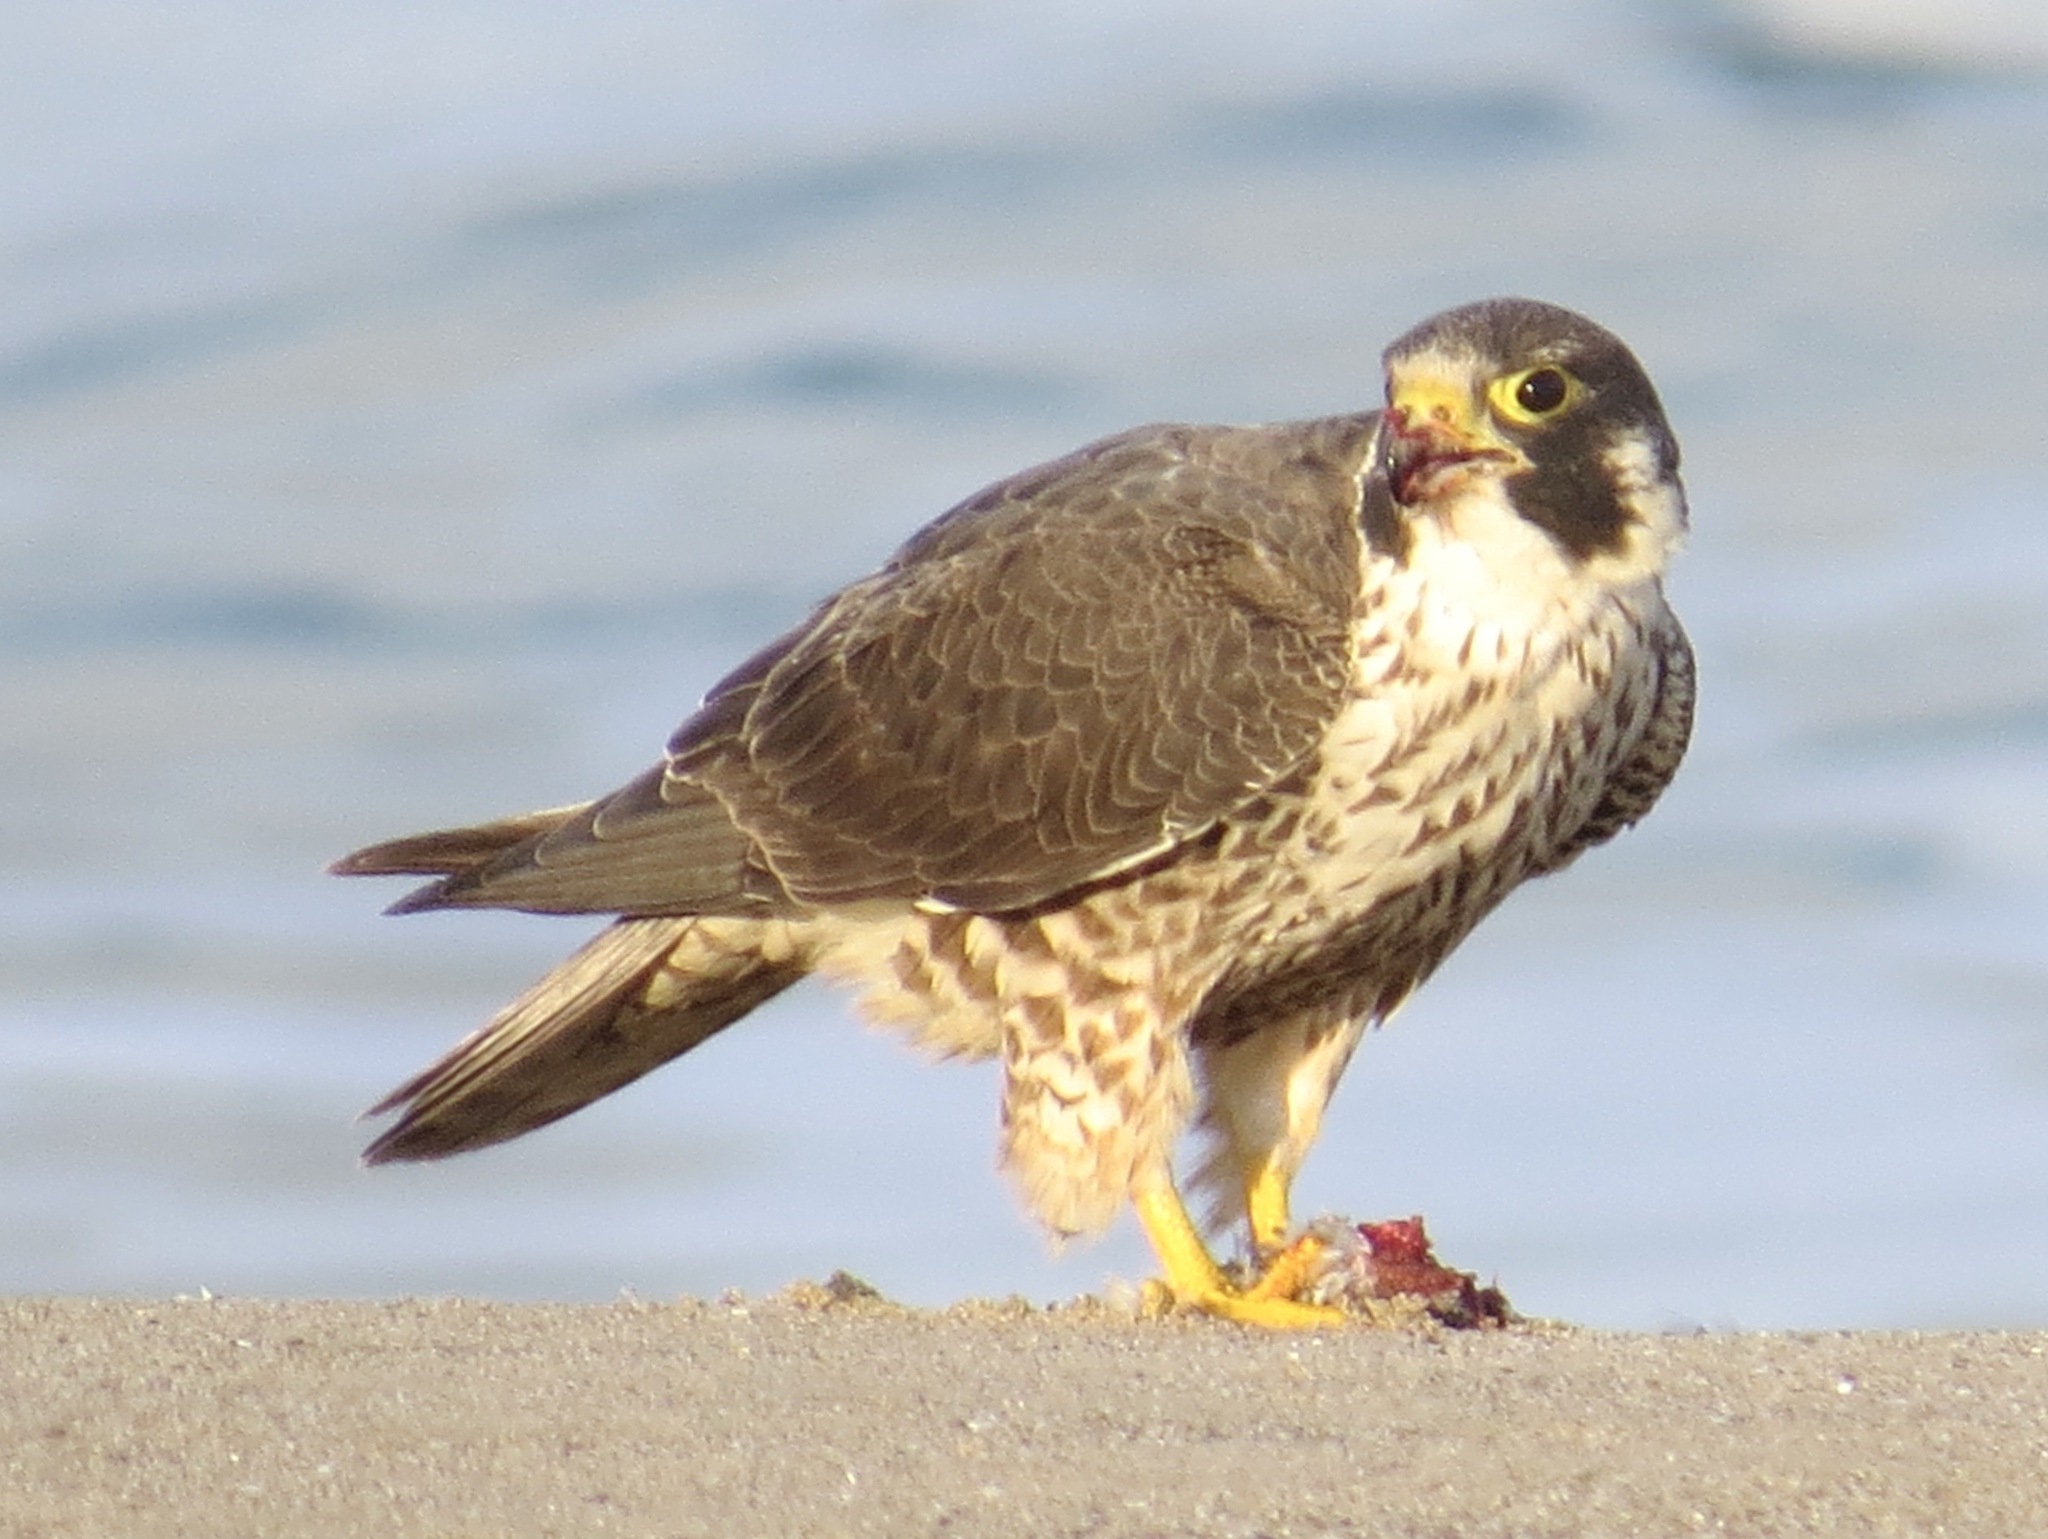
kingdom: Animalia
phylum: Chordata
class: Aves
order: Falconiformes
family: Falconidae
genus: Falco
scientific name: Falco peregrinus
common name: Peregrine falcon
